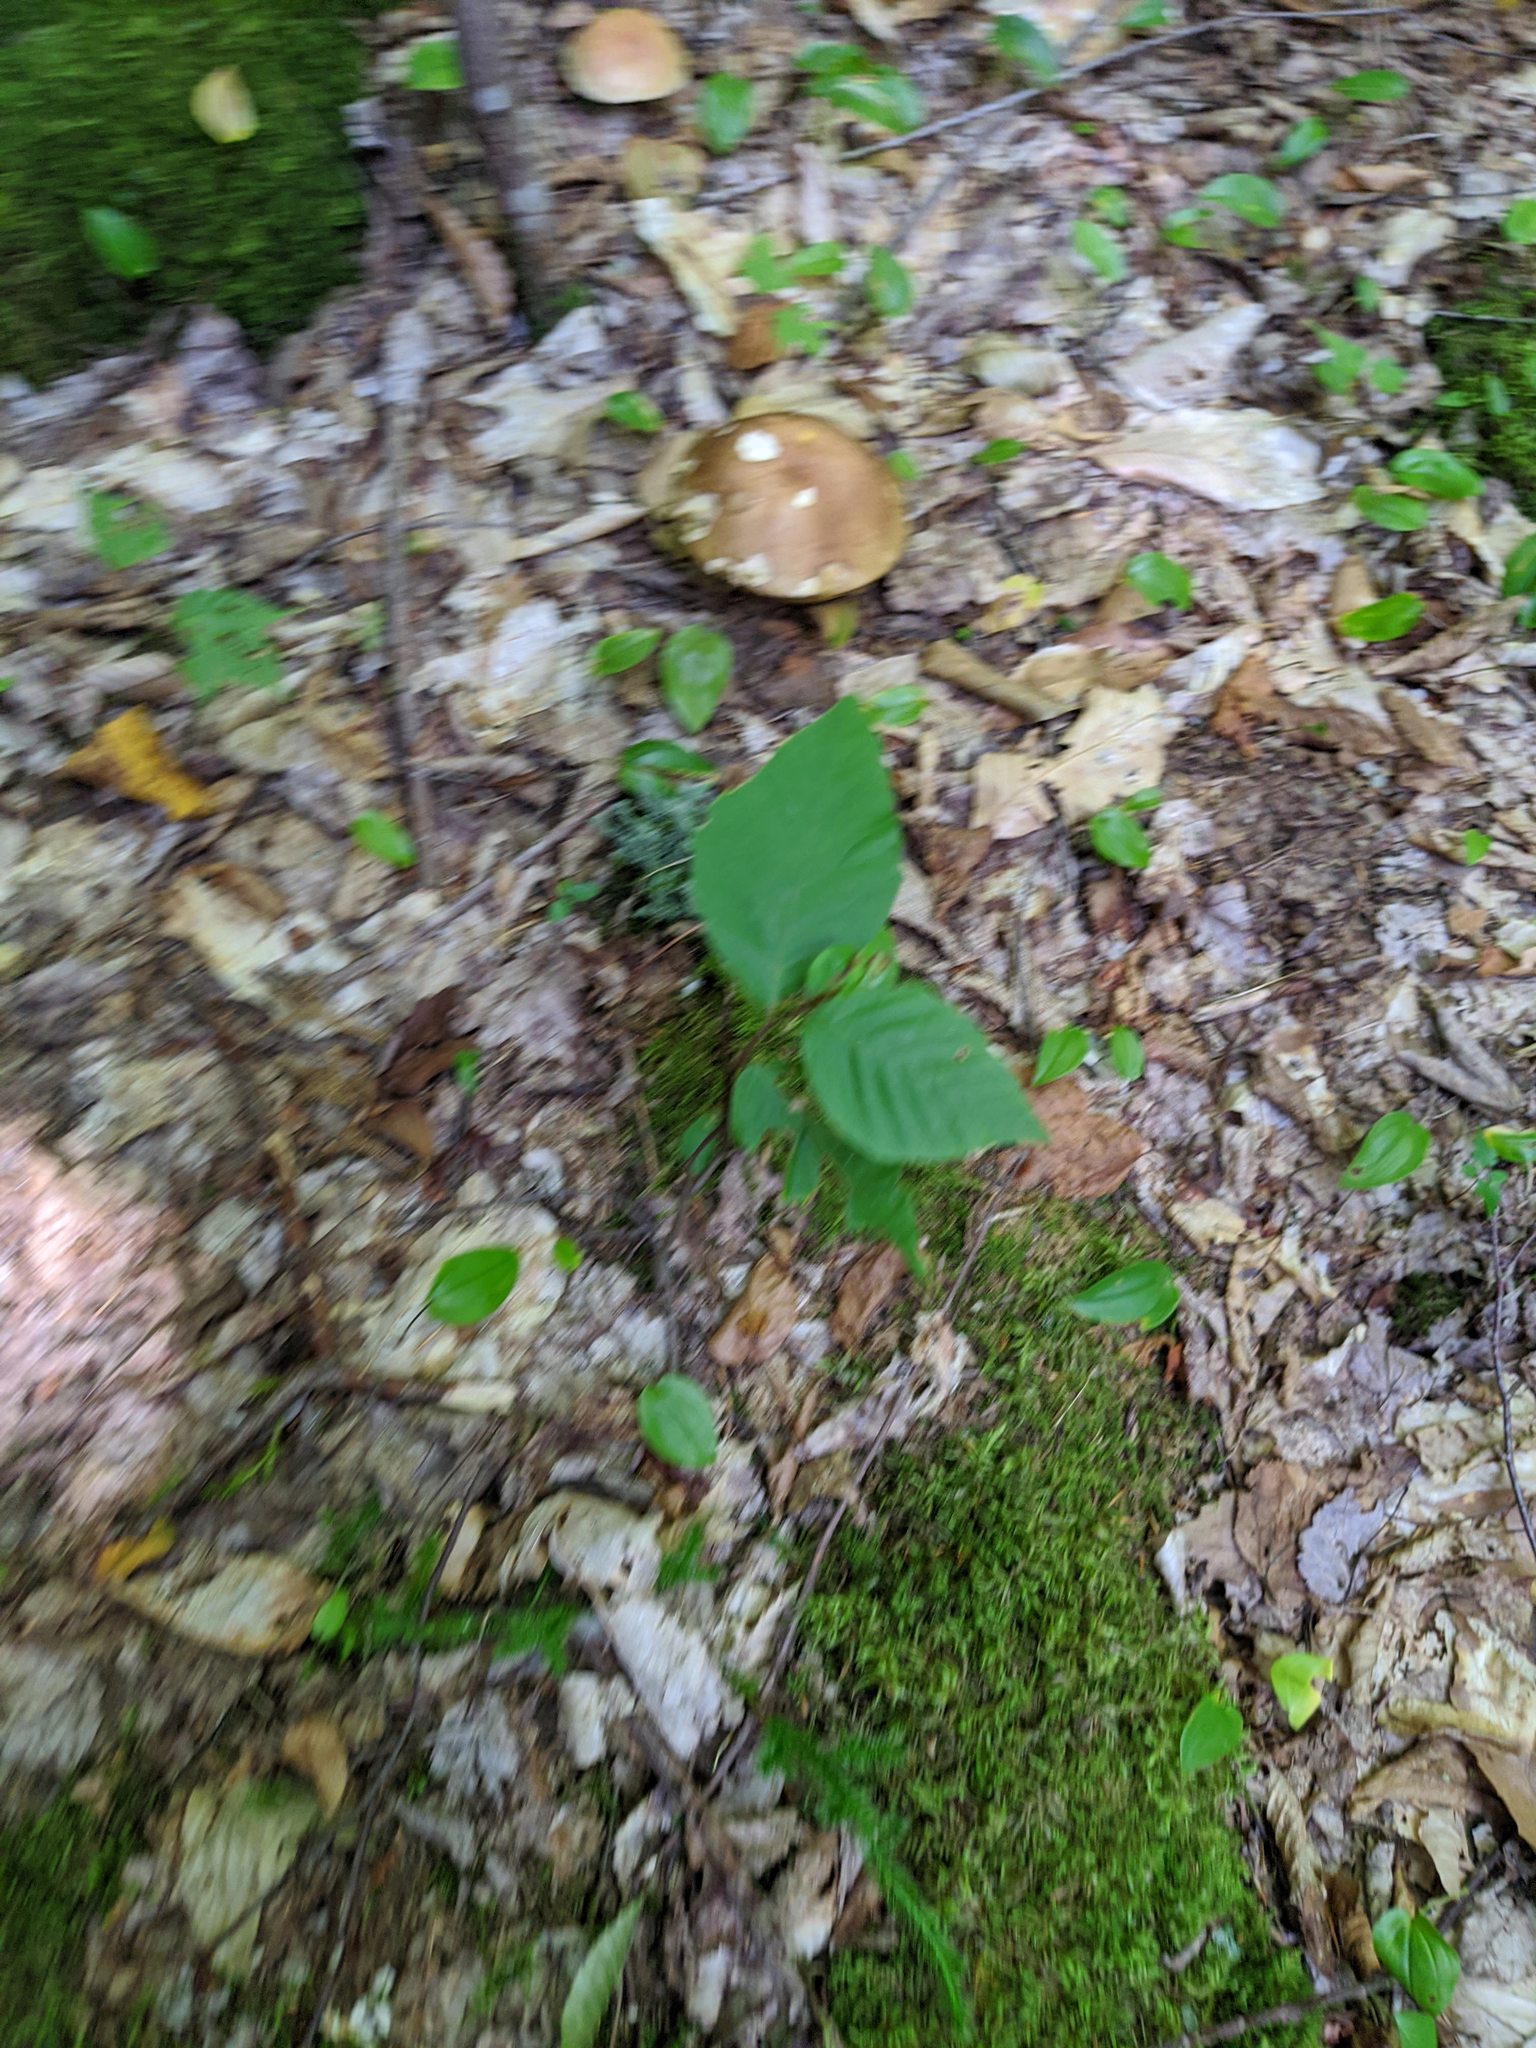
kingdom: Plantae
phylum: Tracheophyta
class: Liliopsida
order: Asparagales
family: Asparagaceae
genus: Maianthemum
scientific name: Maianthemum canadense
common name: False lily-of-the-valley
